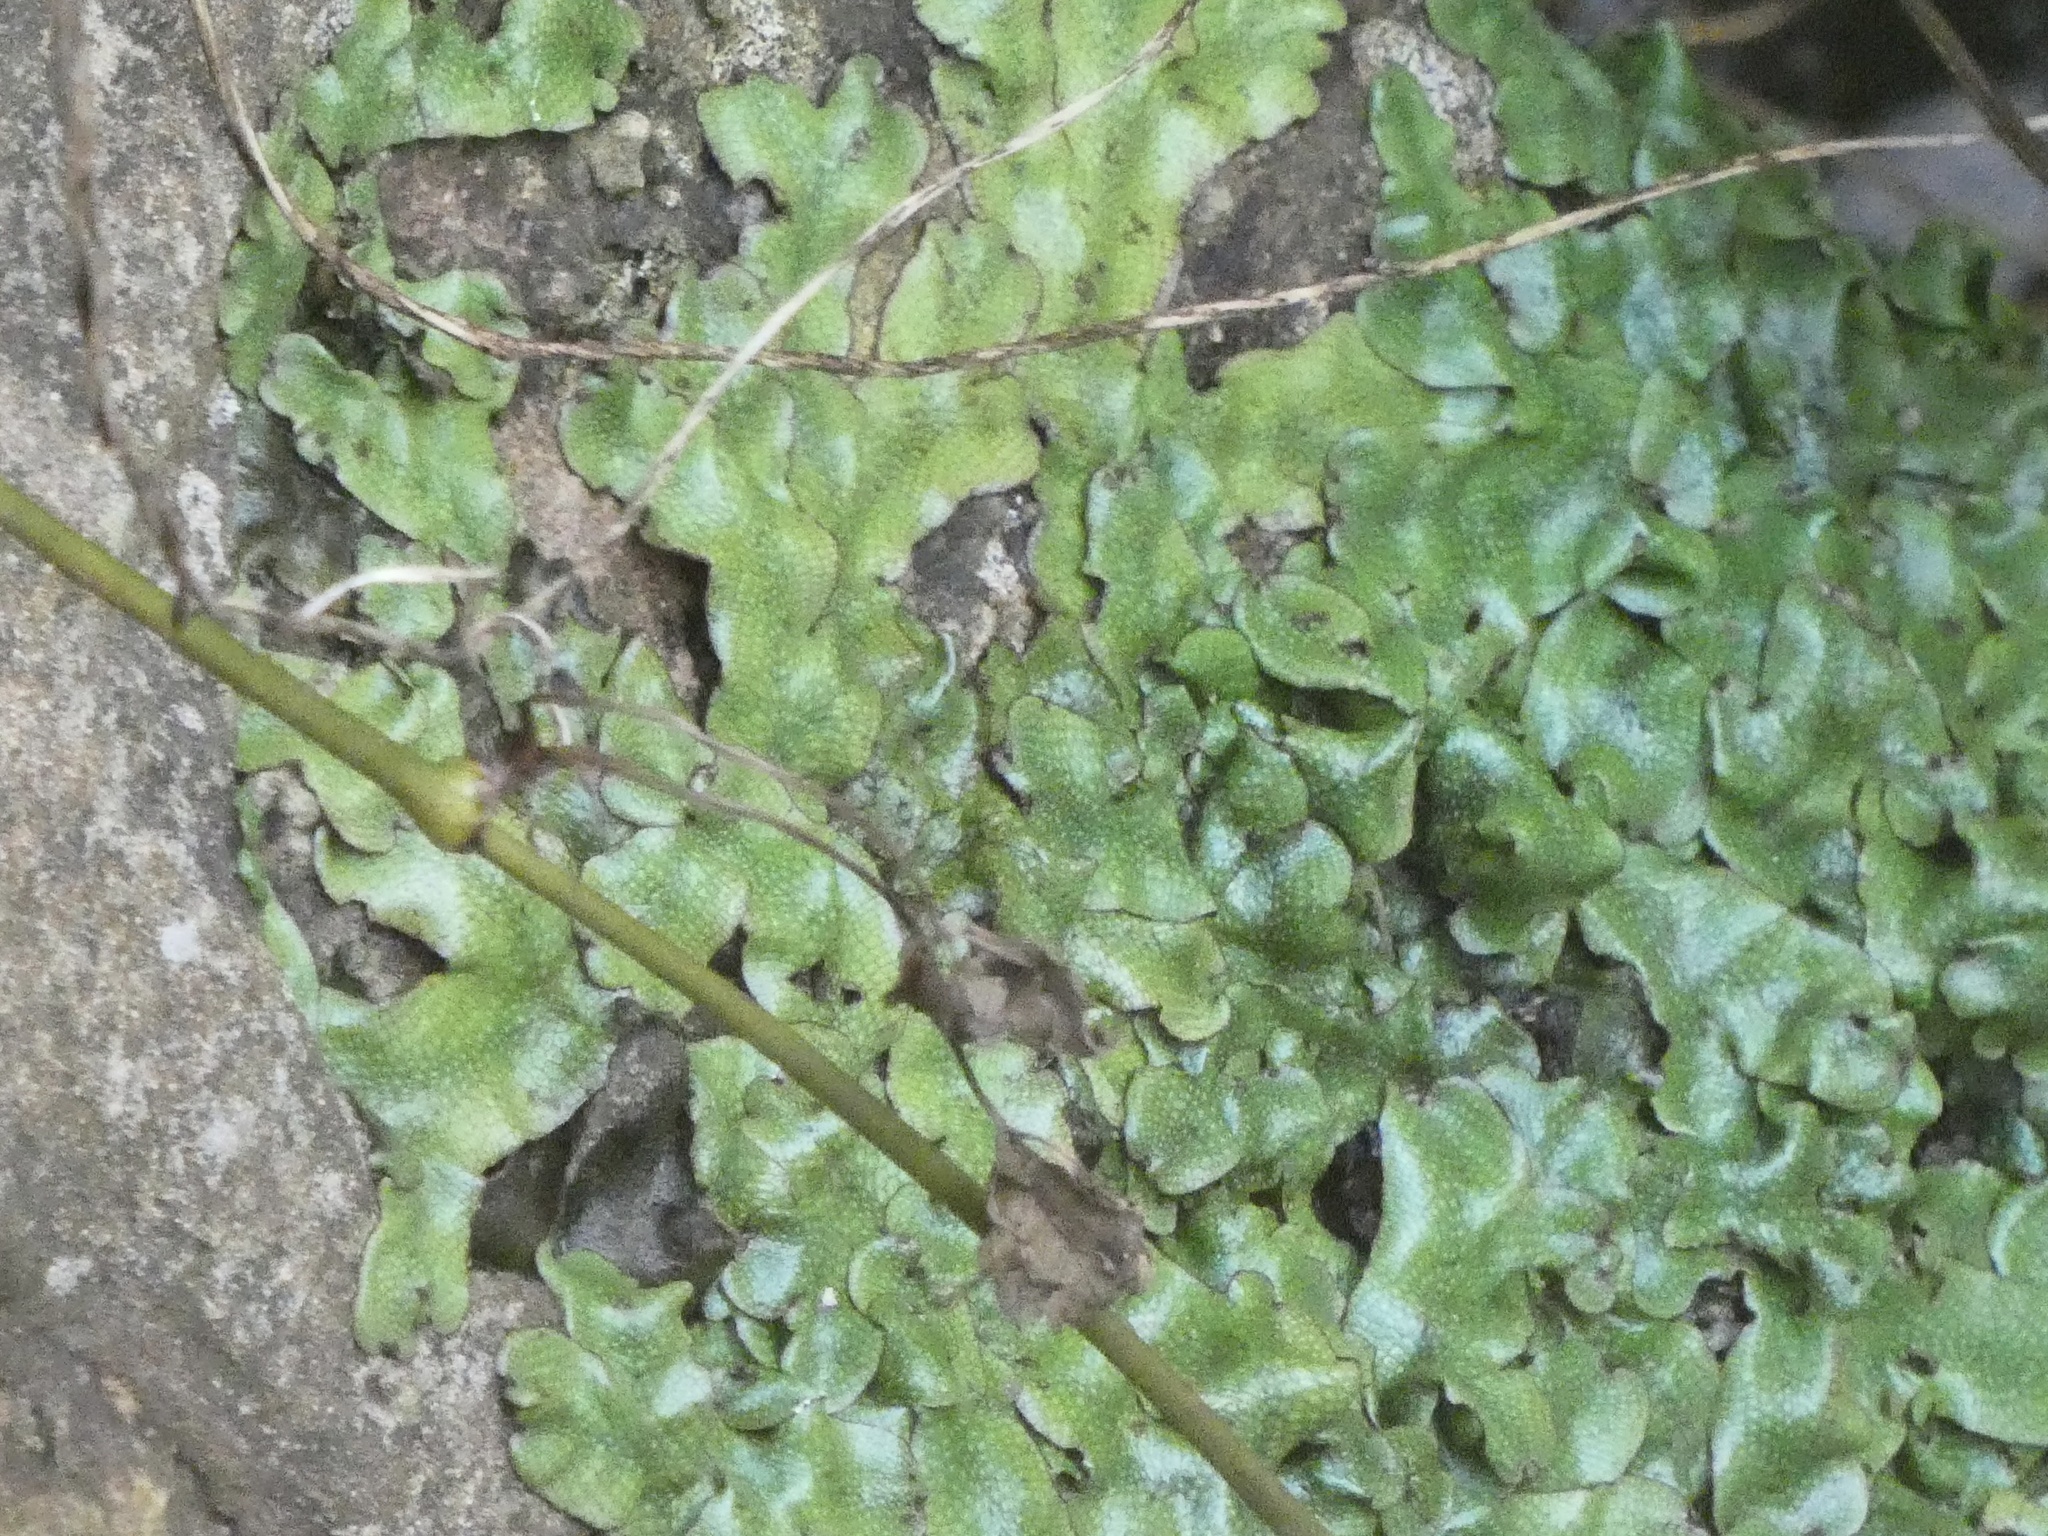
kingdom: Plantae
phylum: Marchantiophyta
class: Marchantiopsida
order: Marchantiales
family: Conocephalaceae
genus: Conocephalum
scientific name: Conocephalum conicum
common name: Great scented liverwort
